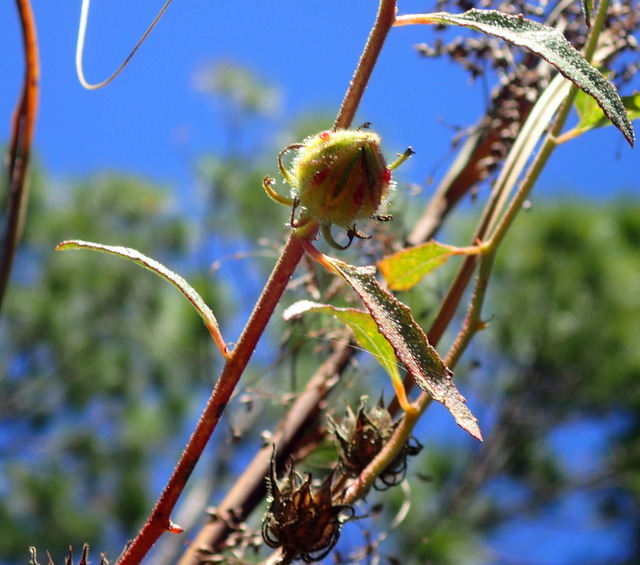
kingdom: Plantae
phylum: Tracheophyta
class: Magnoliopsida
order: Malvales
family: Malvaceae
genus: Hibiscus
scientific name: Hibiscus aculeatus
